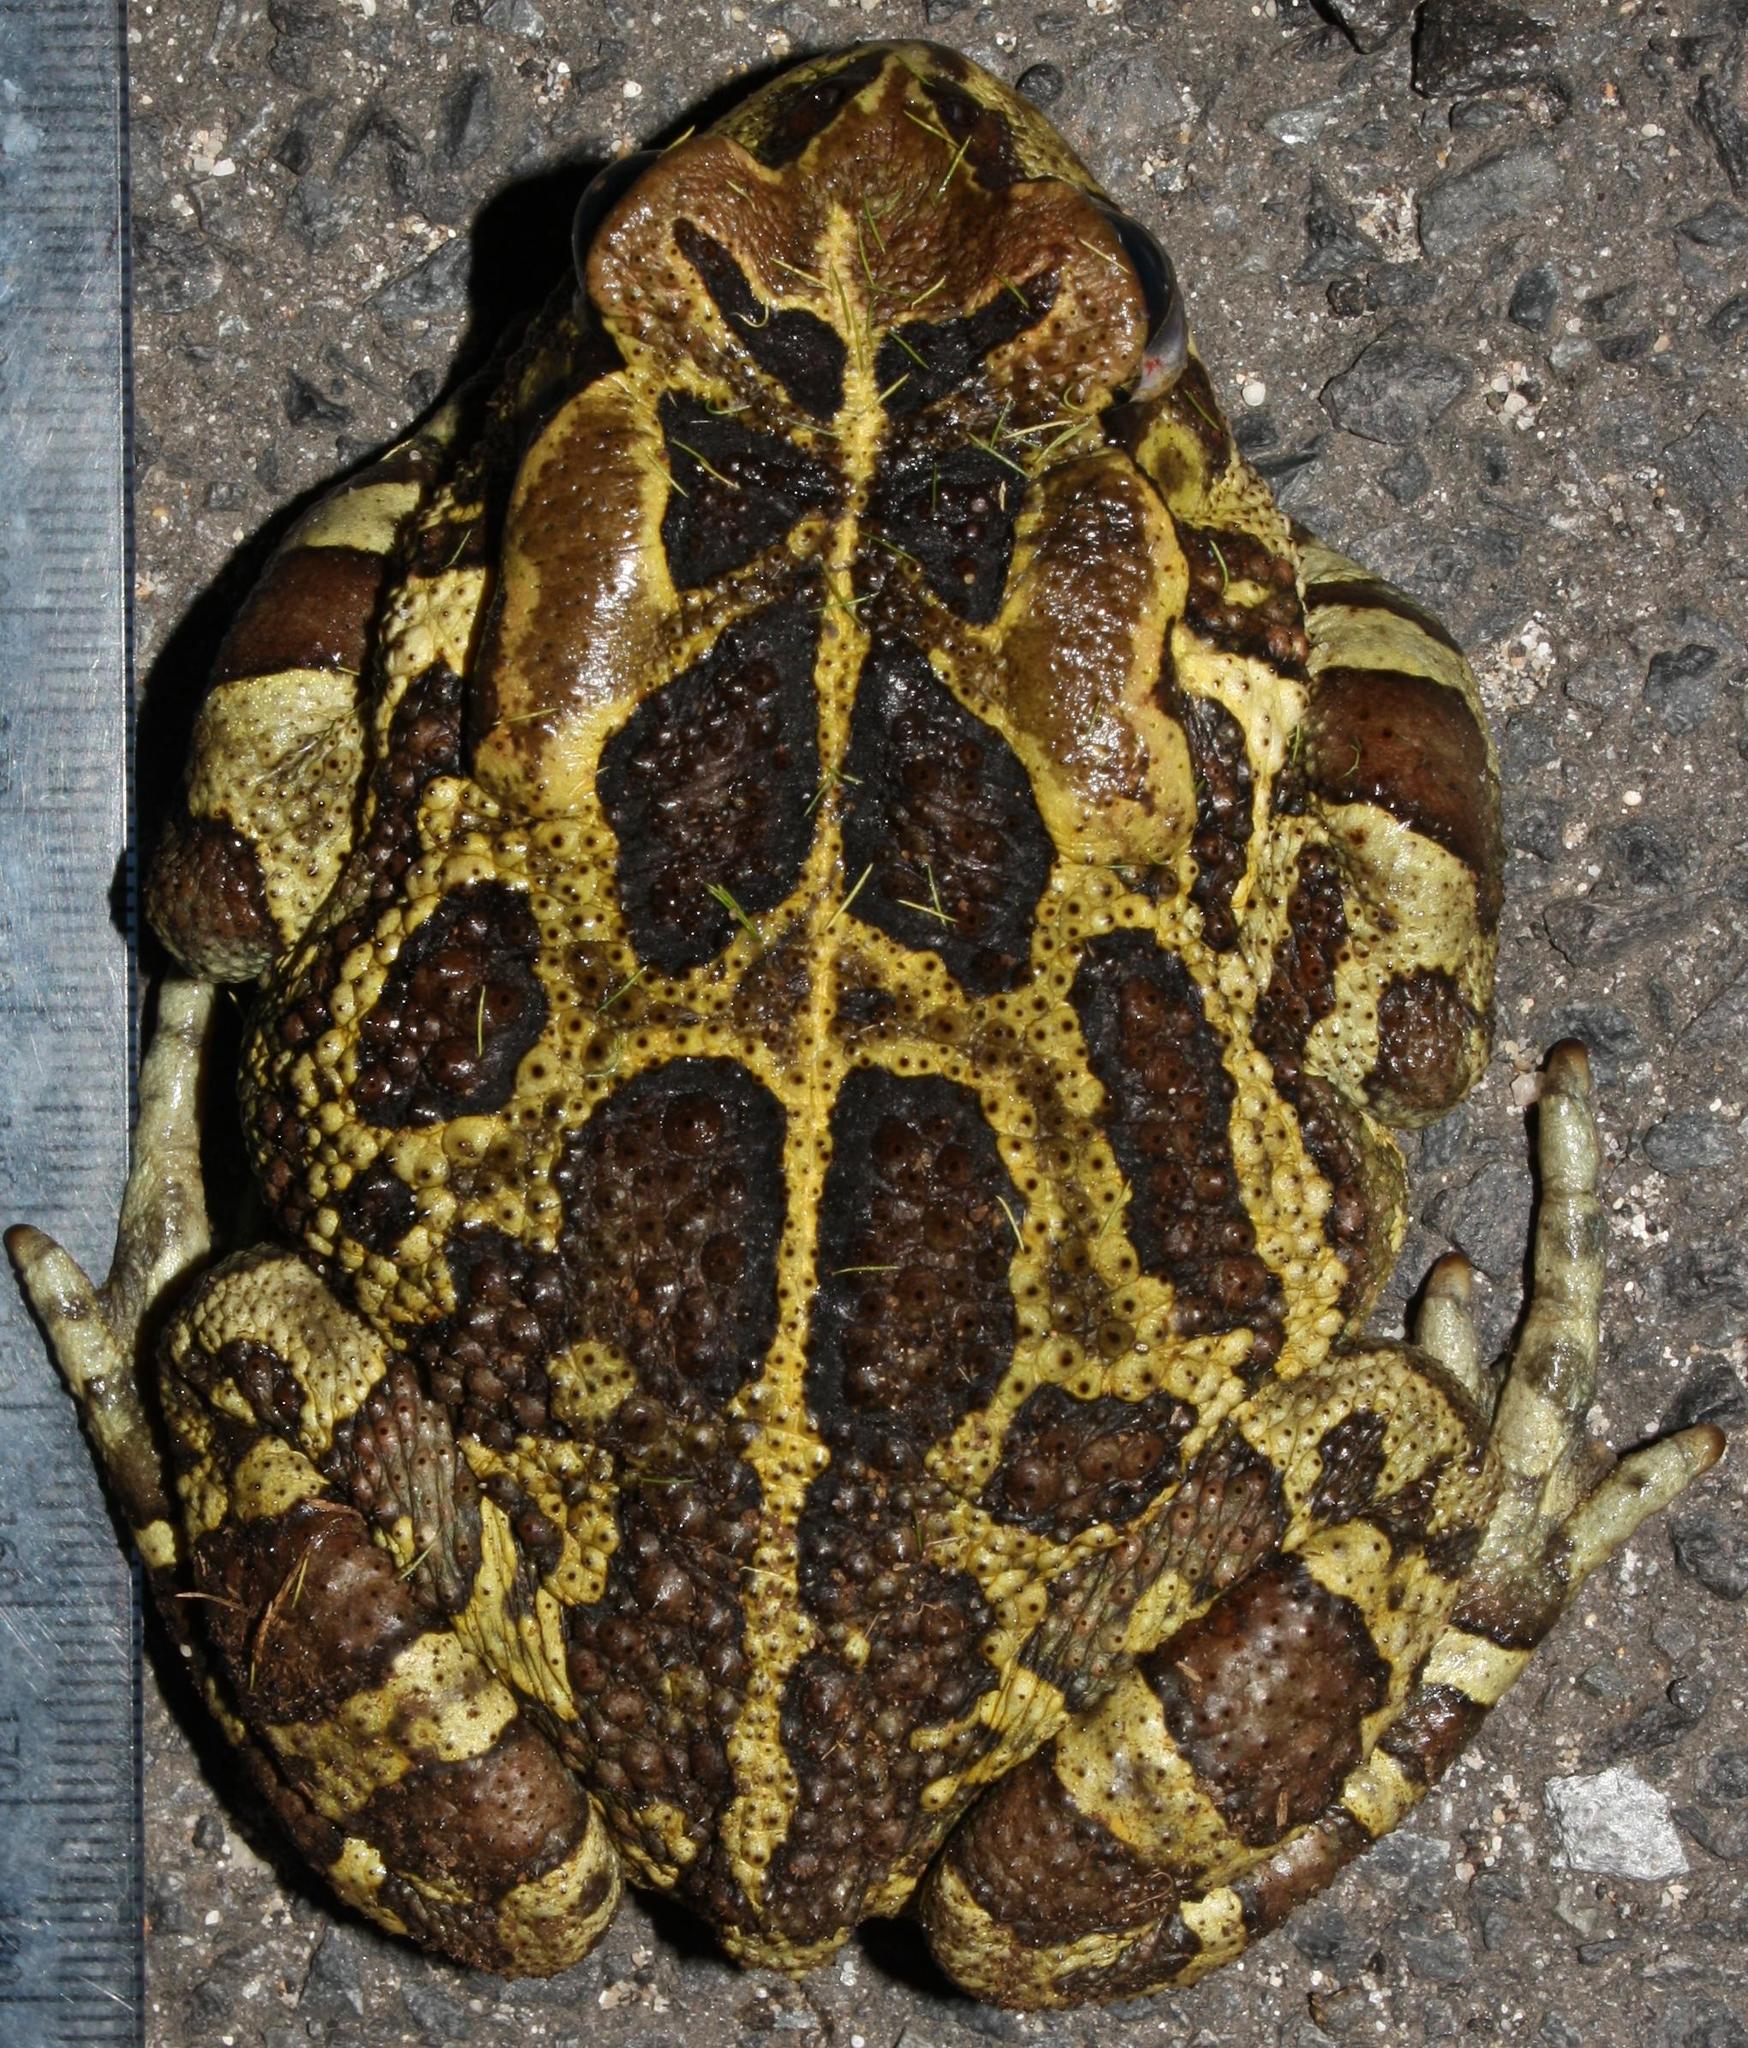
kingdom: Animalia
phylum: Chordata
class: Amphibia
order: Anura
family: Bufonidae
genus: Sclerophrys
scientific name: Sclerophrys pantherina
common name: Panther toad
